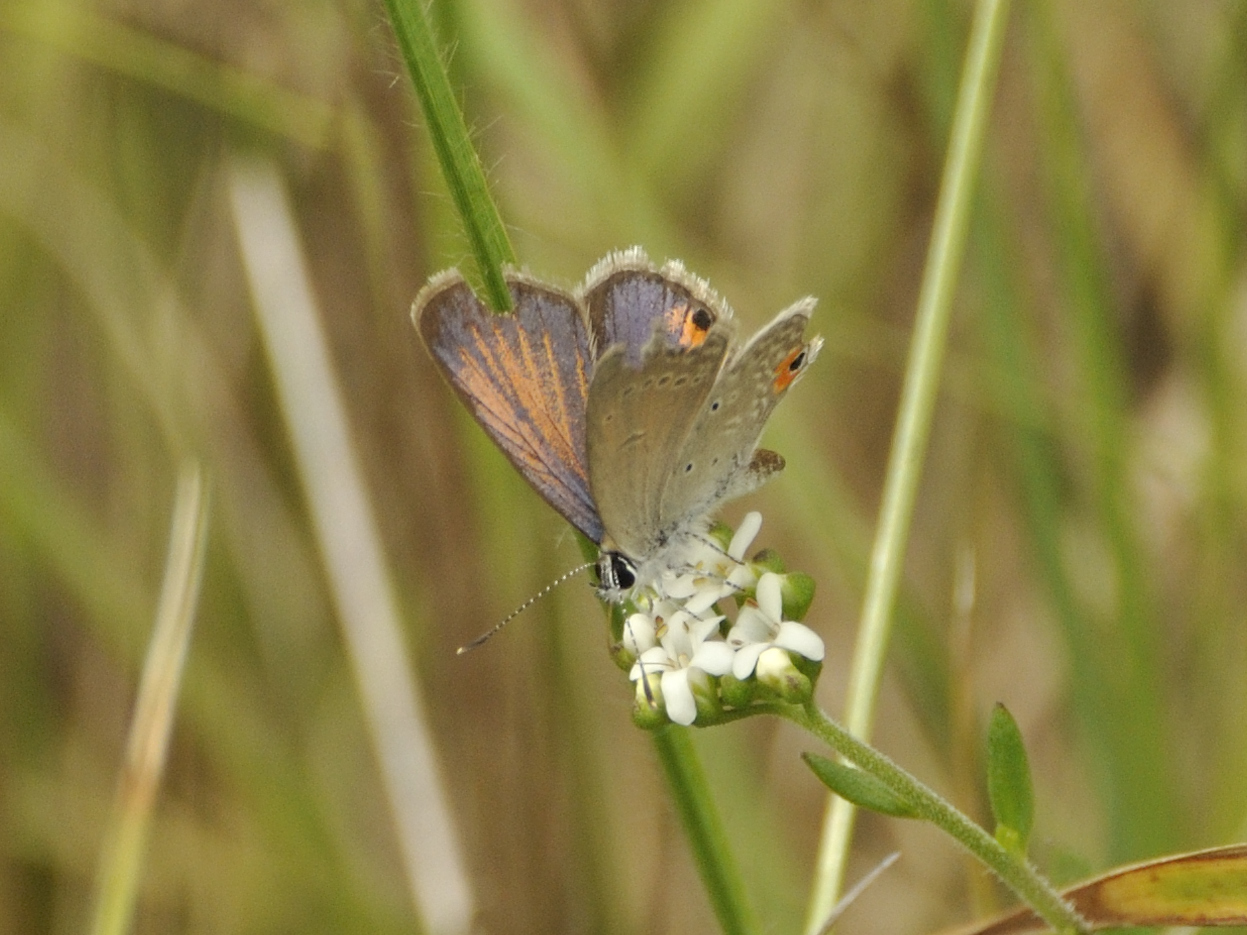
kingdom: Animalia
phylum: Arthropoda
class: Insecta
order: Lepidoptera
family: Lycaenidae
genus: Eicochrysops
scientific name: Eicochrysops messapus
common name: Cupreous blue
